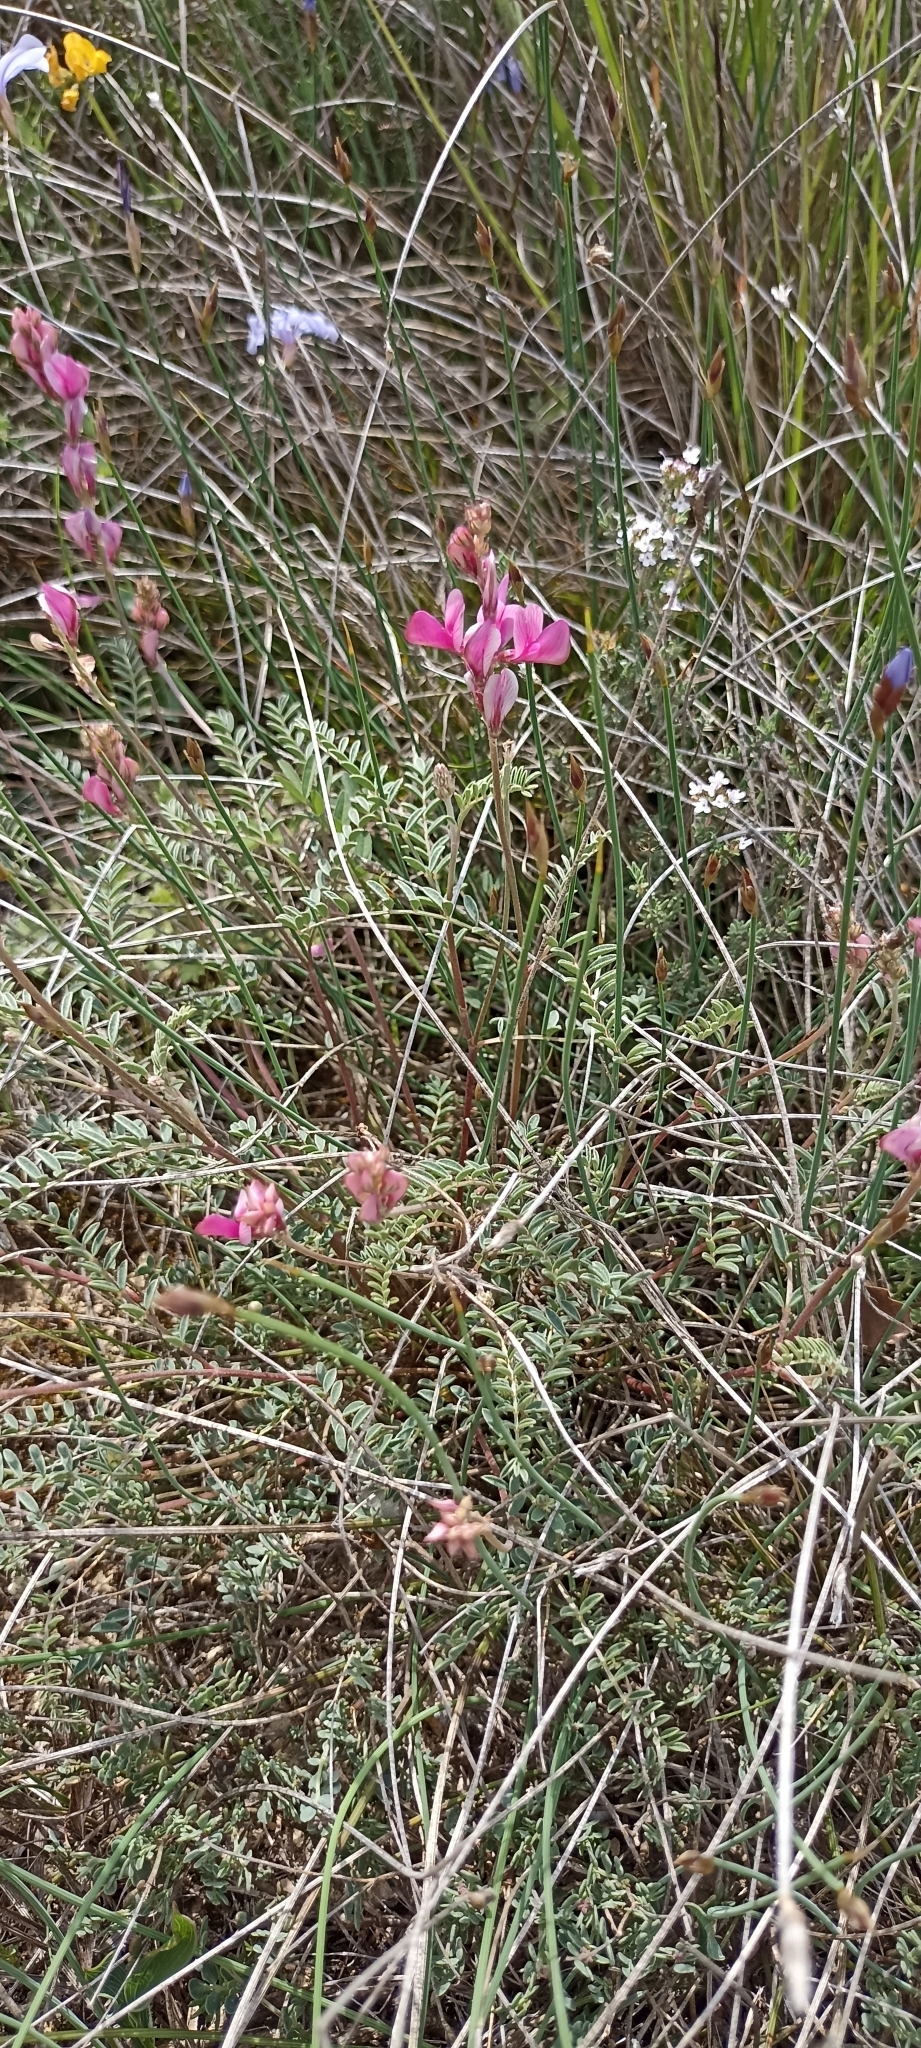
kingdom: Plantae
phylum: Tracheophyta
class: Magnoliopsida
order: Fabales
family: Fabaceae
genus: Hedysarum
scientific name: Hedysarum boveanum
